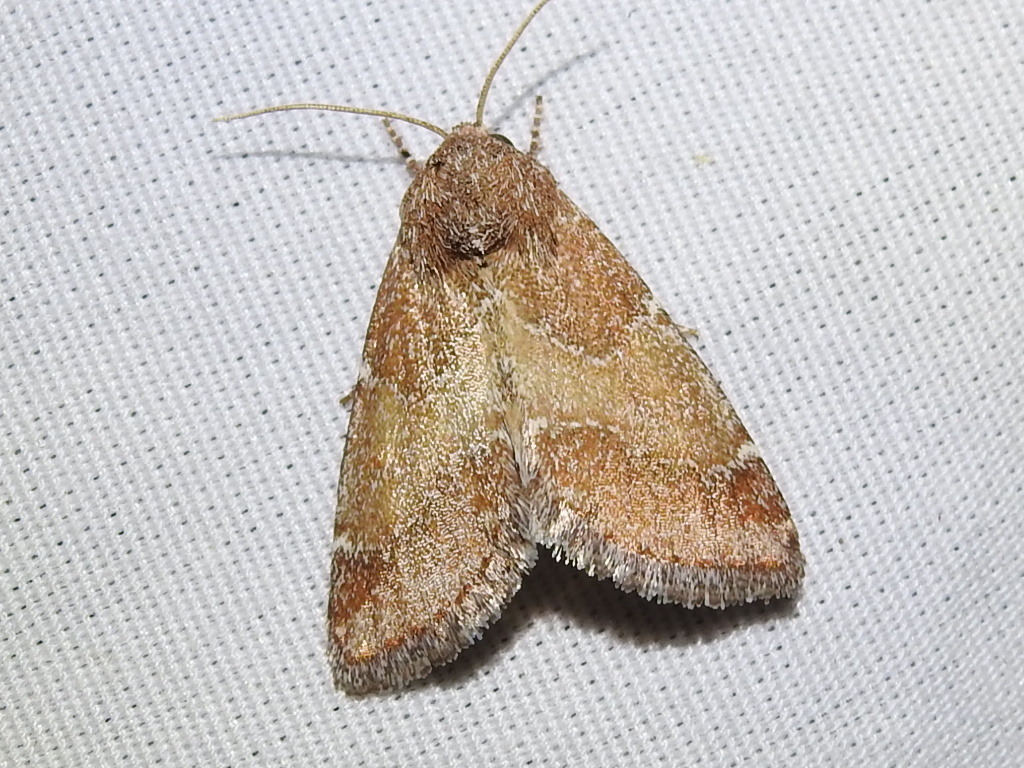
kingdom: Animalia
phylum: Arthropoda
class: Insecta
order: Lepidoptera
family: Noctuidae
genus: Schinia
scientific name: Schinia saturata
